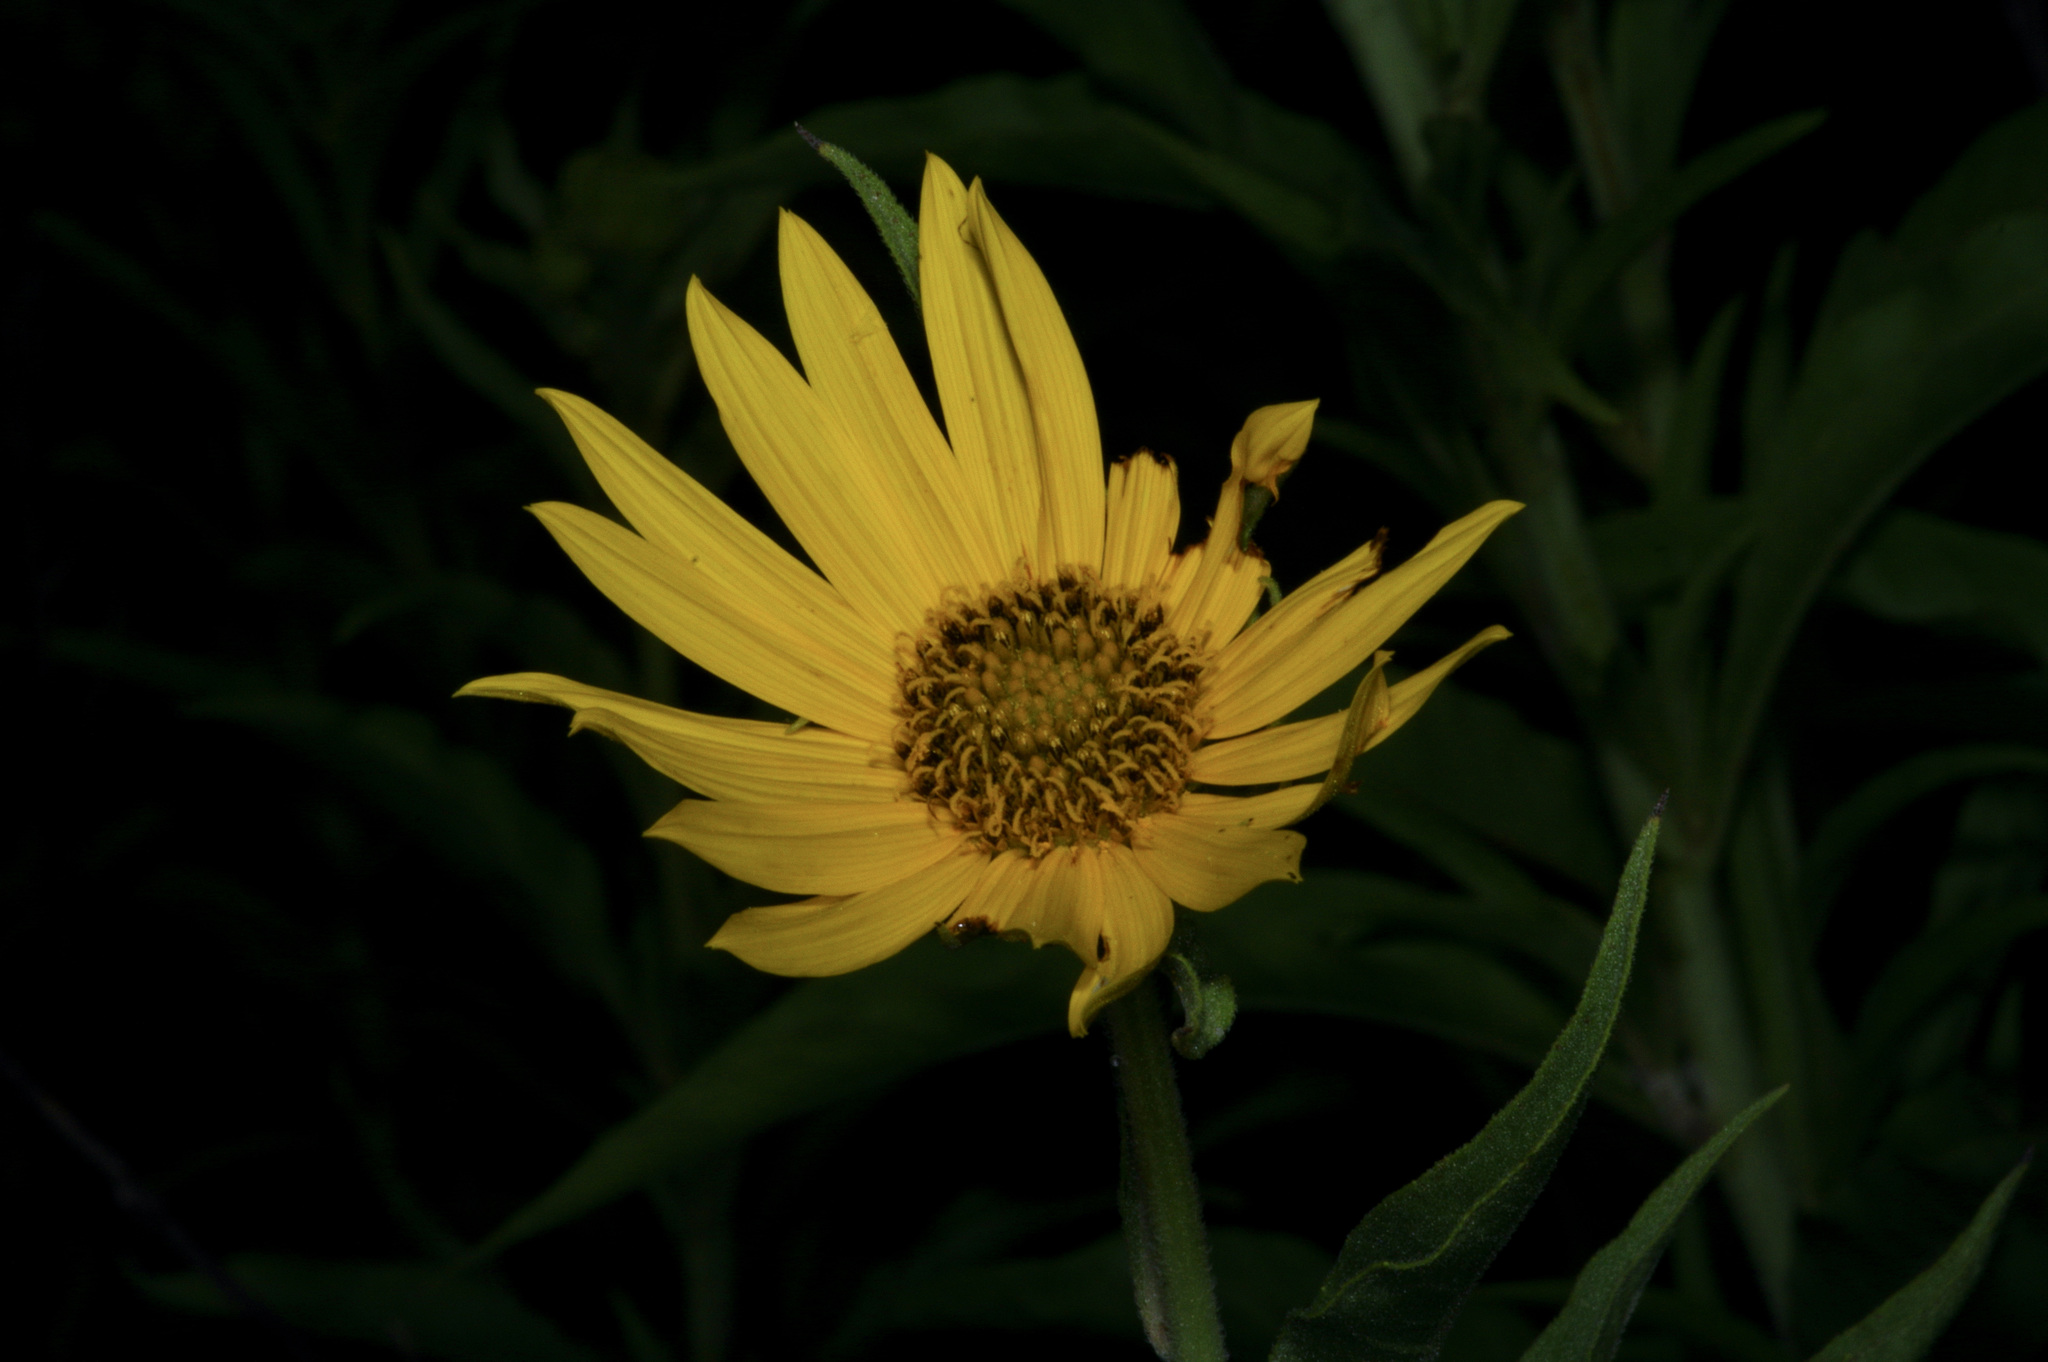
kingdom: Plantae
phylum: Tracheophyta
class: Magnoliopsida
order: Asterales
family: Asteraceae
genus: Helianthus
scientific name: Helianthus maximiliani
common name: Maximilian's sunflower
